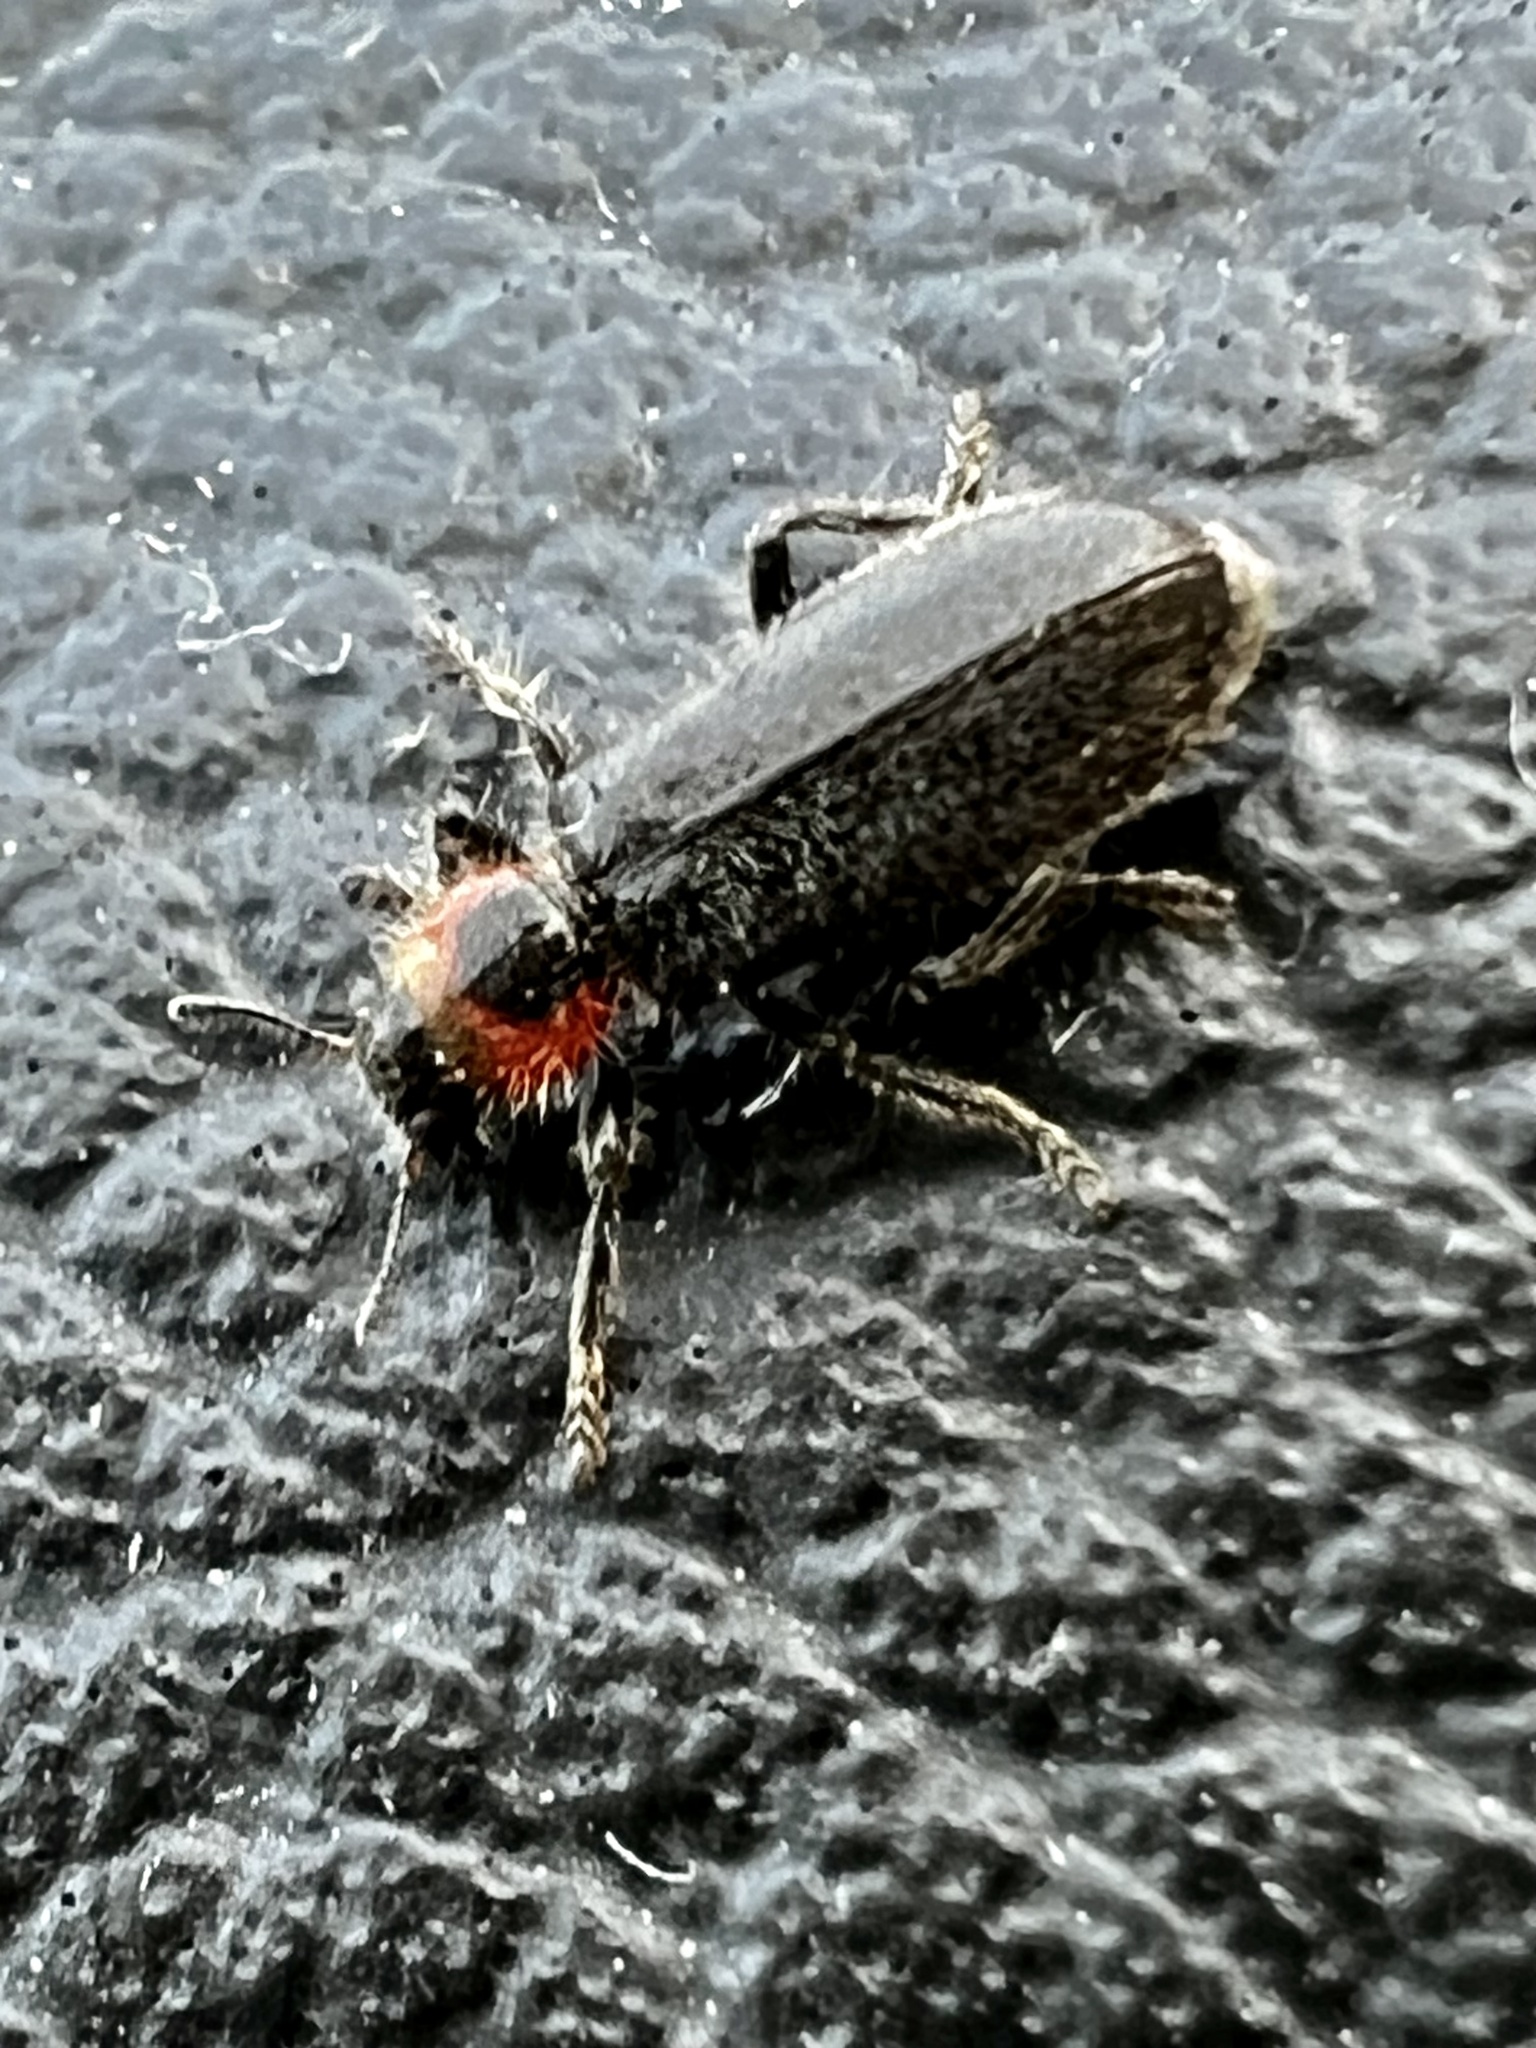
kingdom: Animalia
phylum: Arthropoda
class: Insecta
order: Coleoptera
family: Cleridae
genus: Placopterus
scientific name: Placopterus thoracicus
